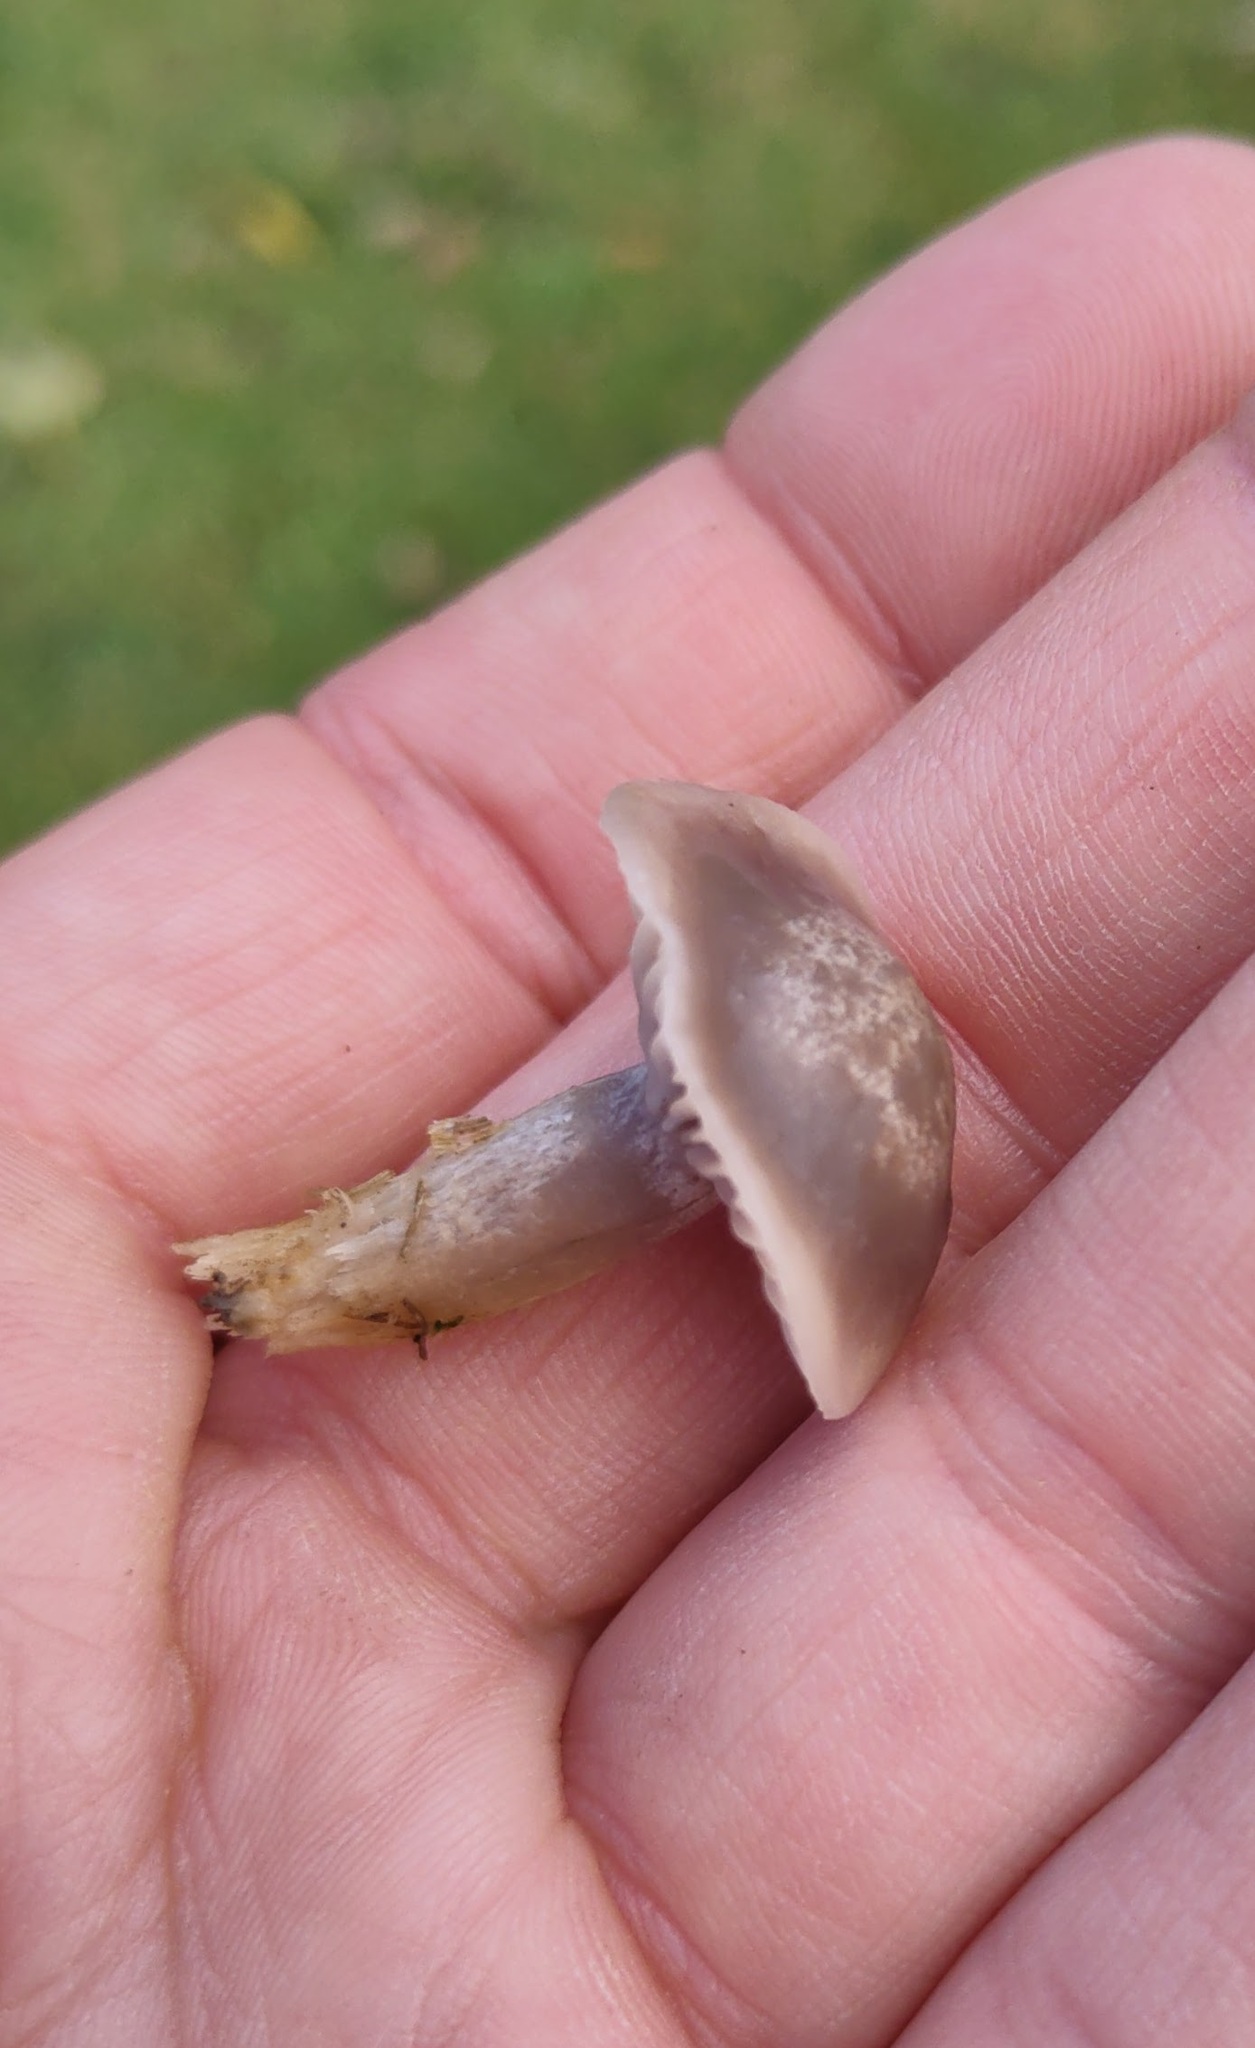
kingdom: Fungi
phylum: Basidiomycota
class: Agaricomycetes
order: Agaricales
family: Hygrophoraceae
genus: Cuphophyllus
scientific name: Cuphophyllus flavipes
